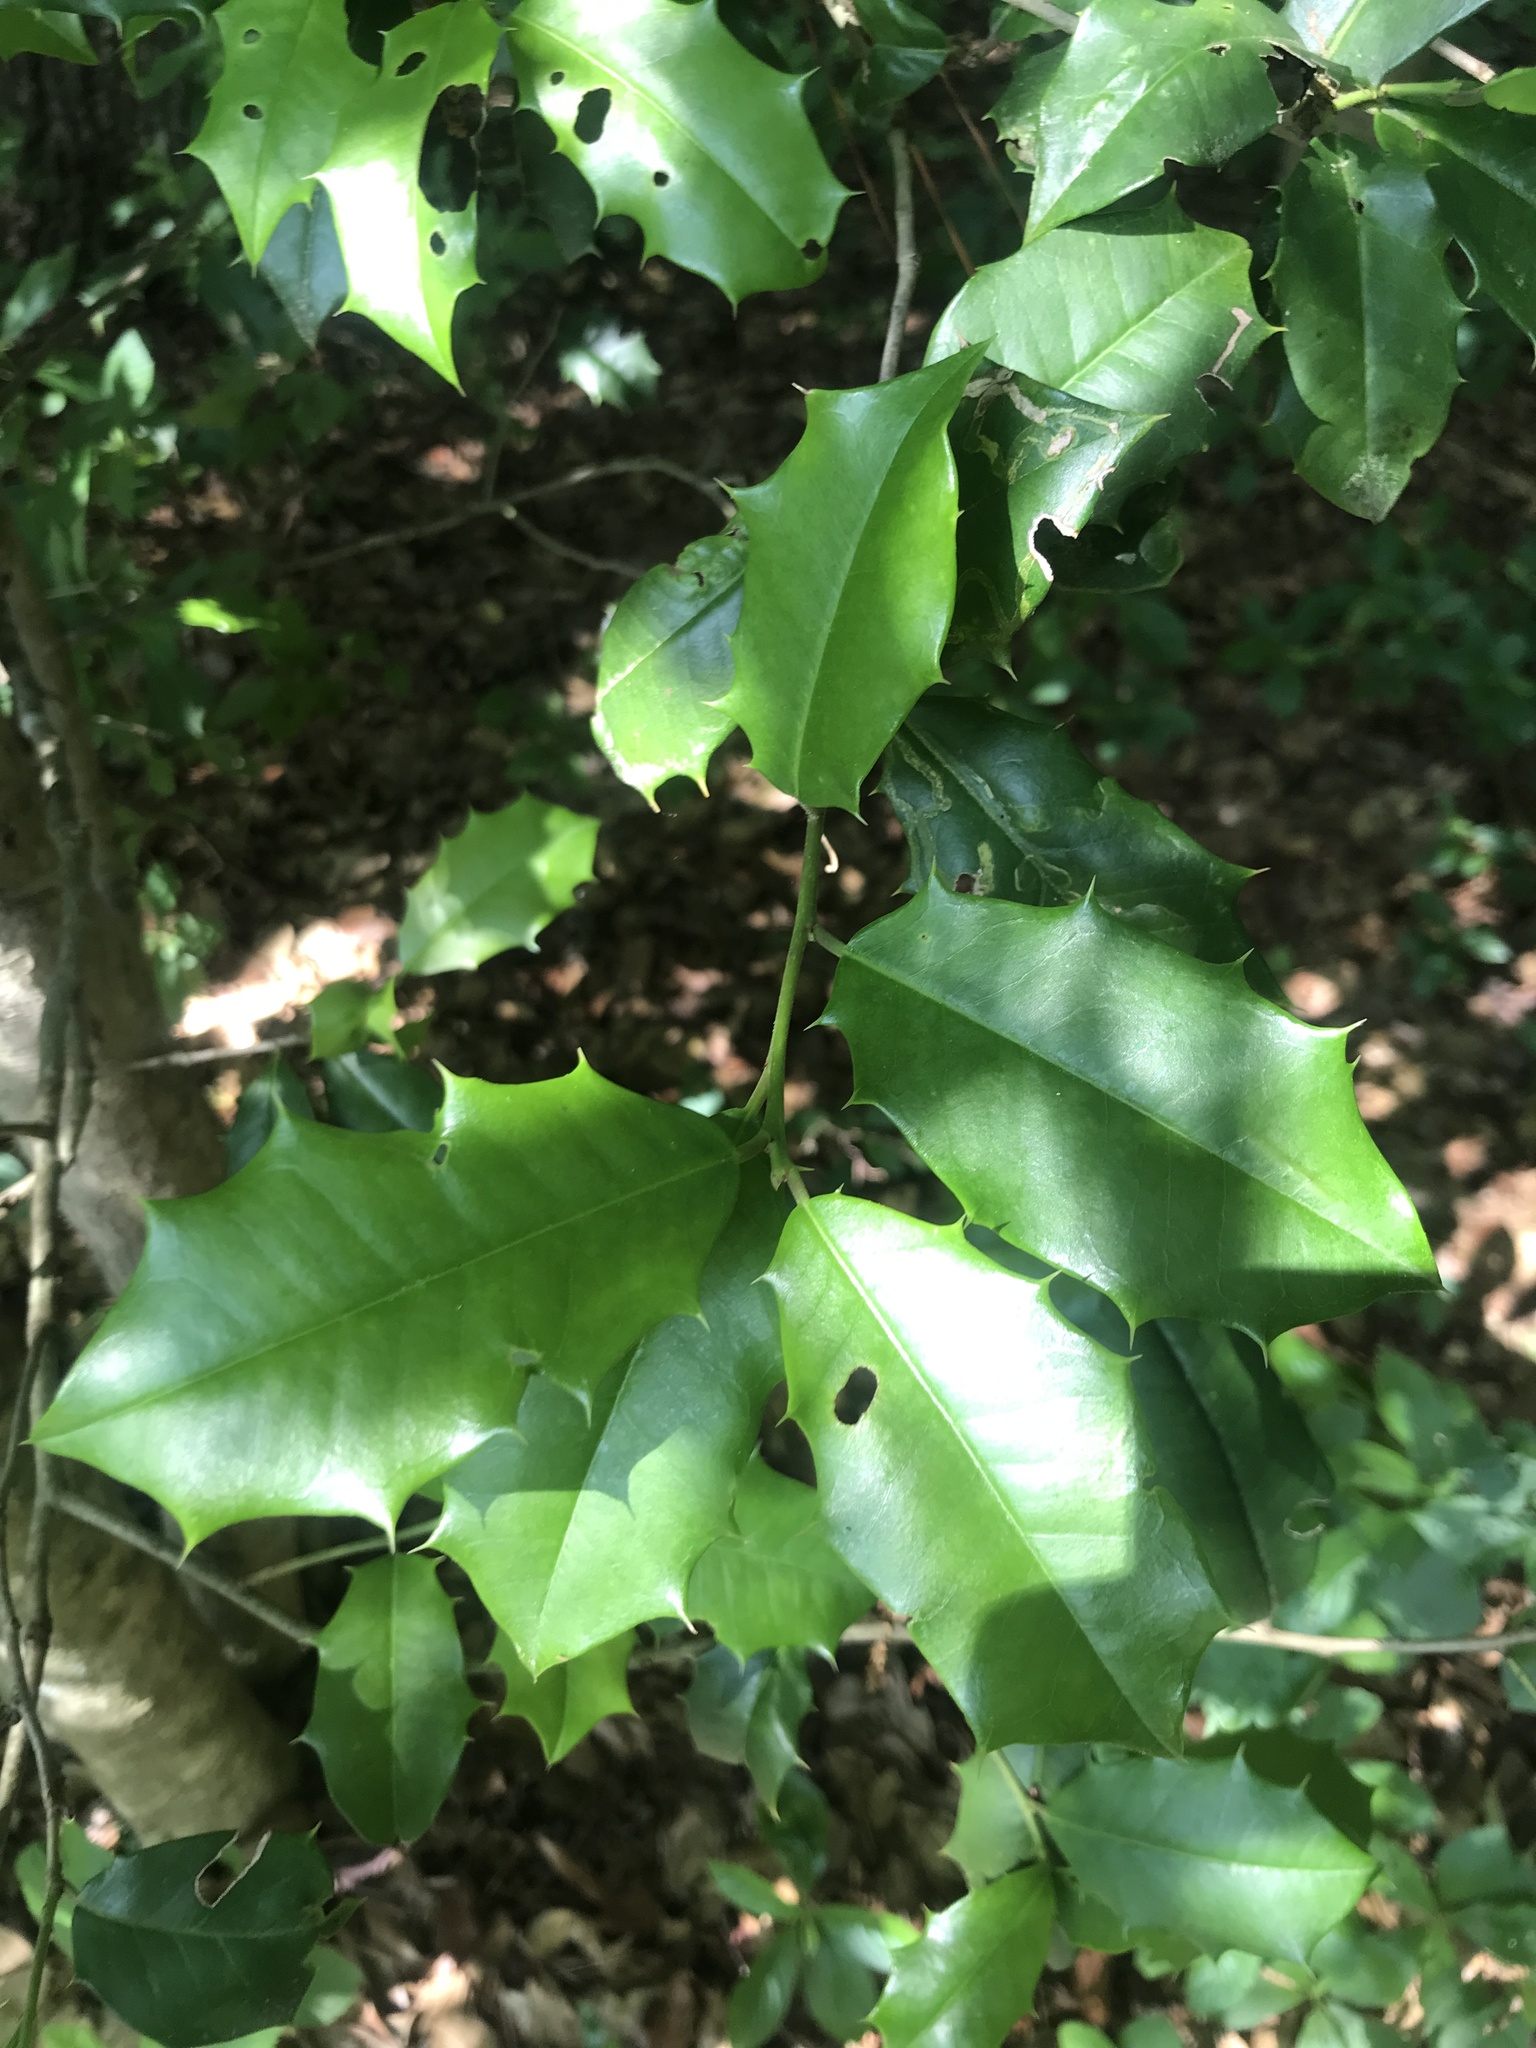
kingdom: Plantae
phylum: Tracheophyta
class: Magnoliopsida
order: Aquifoliales
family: Aquifoliaceae
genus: Ilex
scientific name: Ilex opaca
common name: American holly
